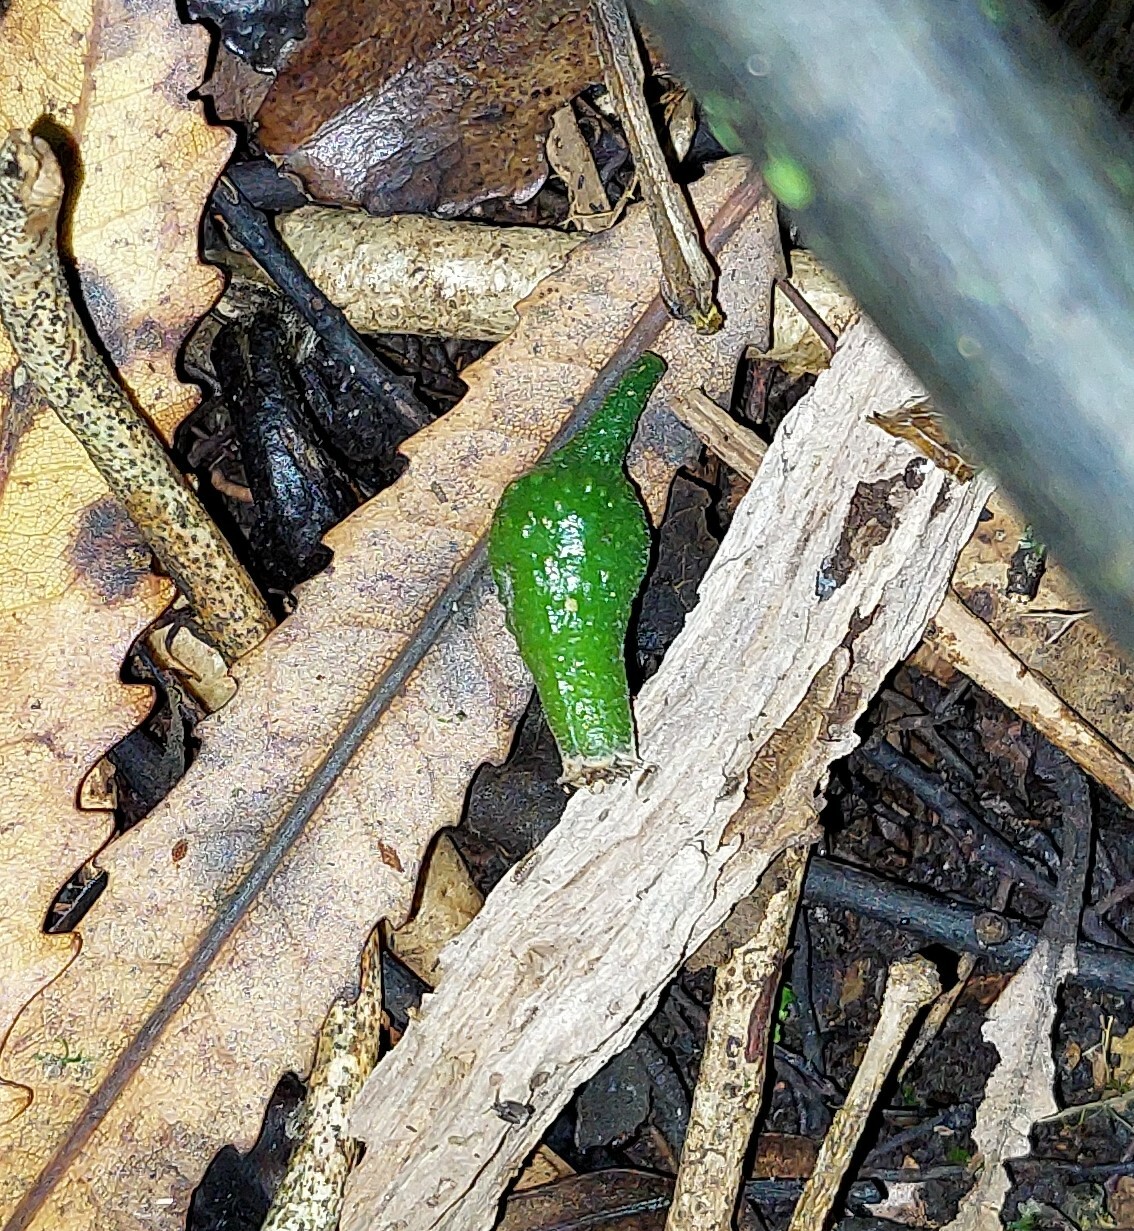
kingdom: Plantae
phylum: Tracheophyta
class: Magnoliopsida
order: Laurales
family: Atherospermataceae
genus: Laurelia
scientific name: Laurelia novae-zelandiae
